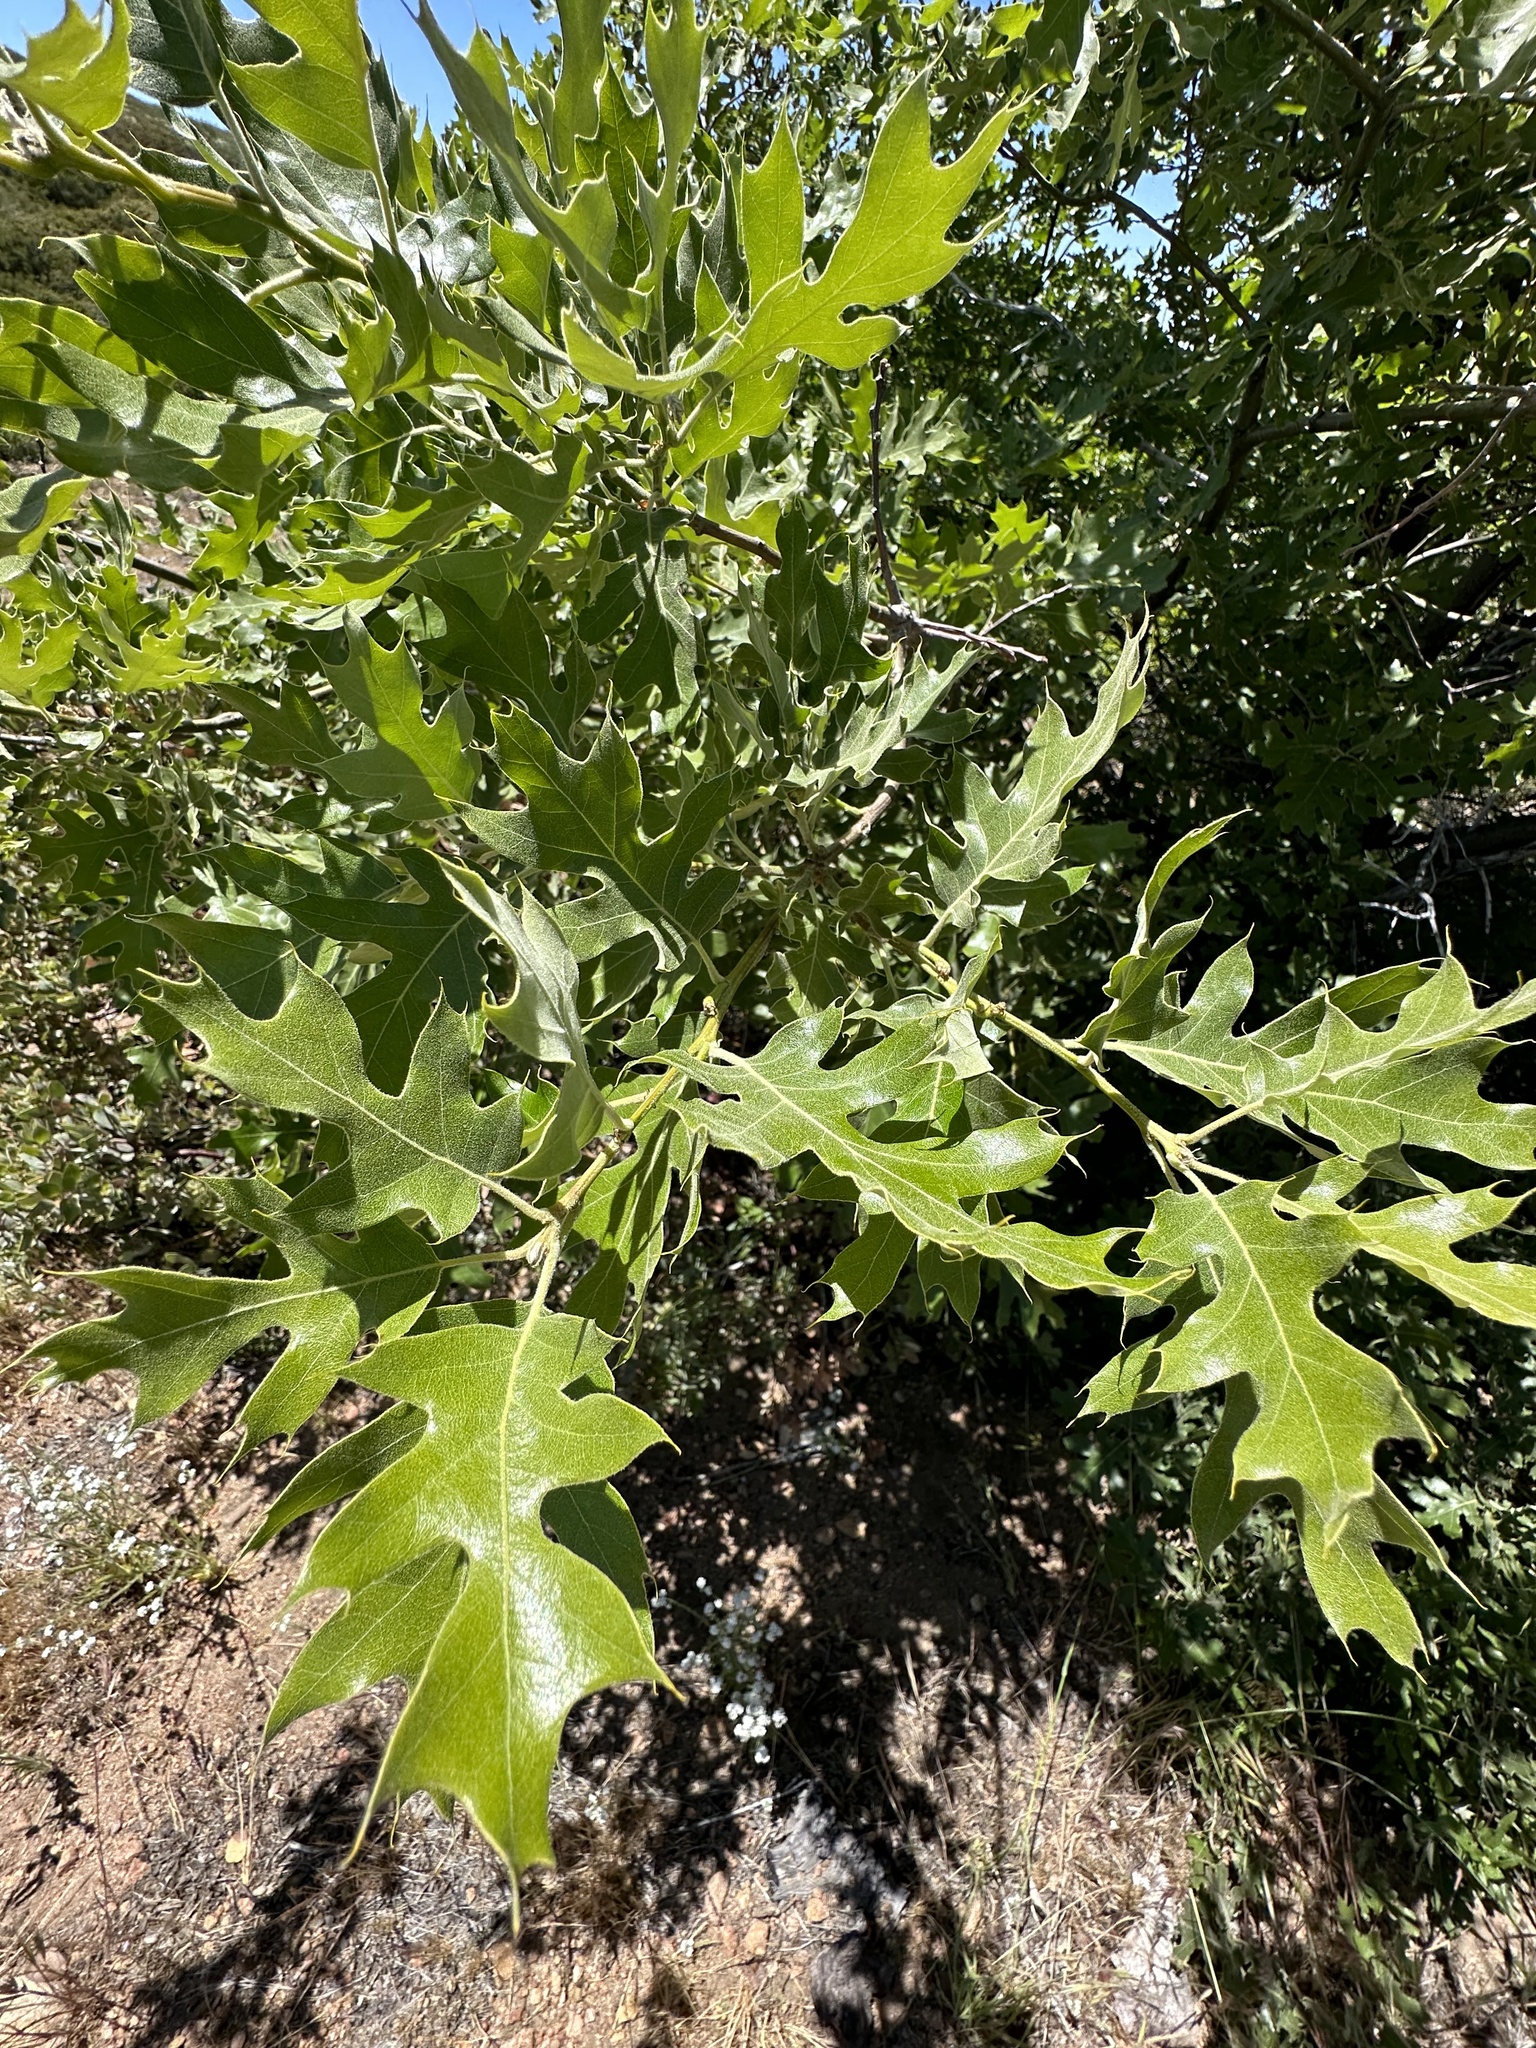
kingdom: Plantae
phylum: Tracheophyta
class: Magnoliopsida
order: Fagales
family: Fagaceae
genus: Quercus
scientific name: Quercus kelloggii
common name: California black oak
